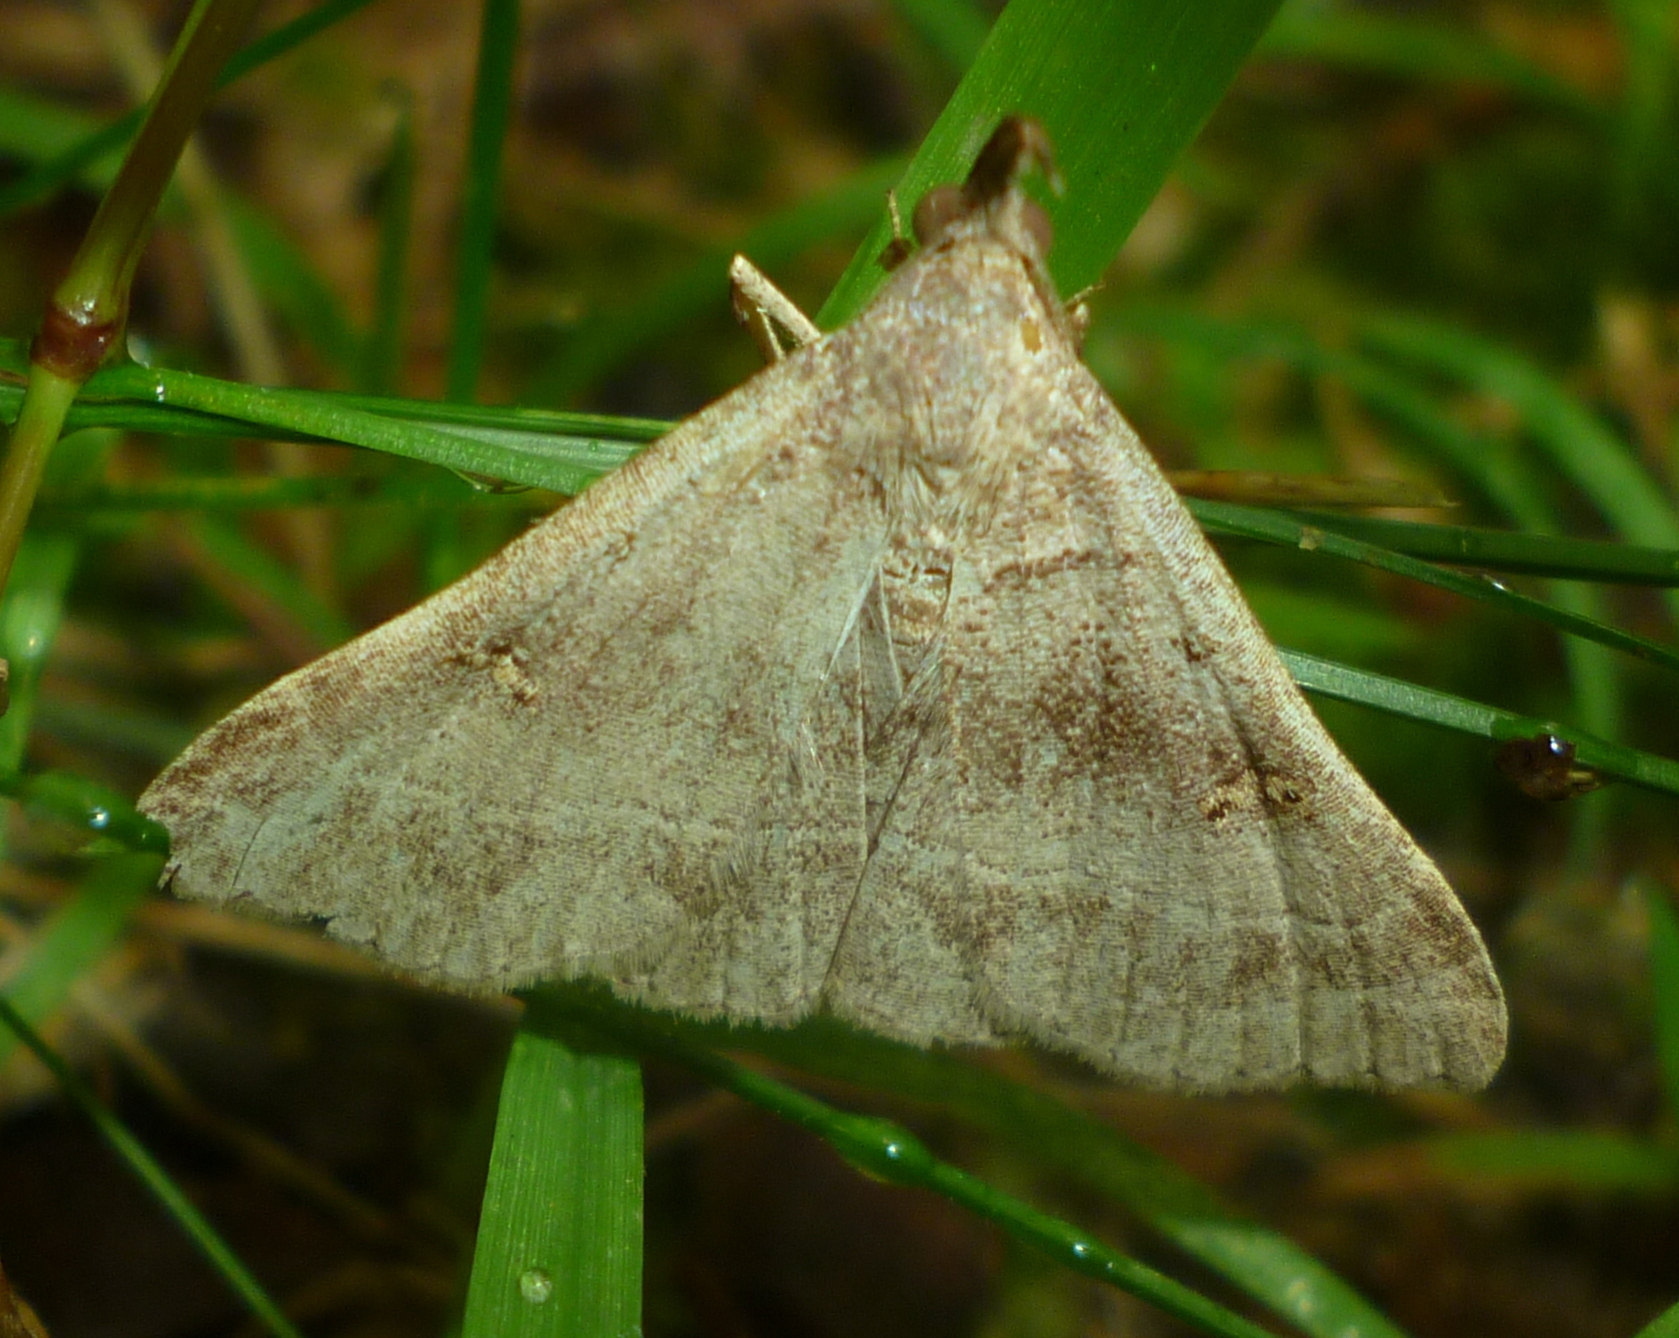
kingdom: Animalia
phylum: Arthropoda
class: Insecta
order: Lepidoptera
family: Erebidae
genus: Renia
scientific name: Renia flavipunctalis
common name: Yellow-spotted renia moth
